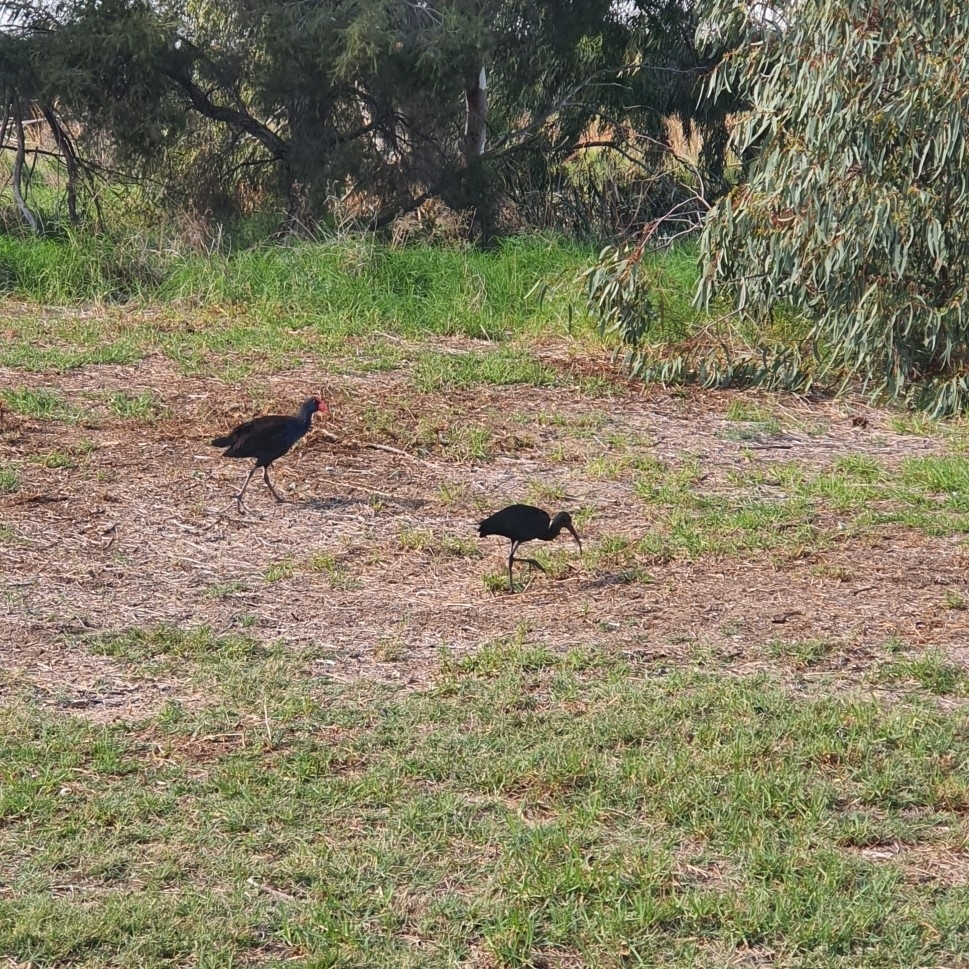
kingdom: Animalia
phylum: Chordata
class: Aves
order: Gruiformes
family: Rallidae
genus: Porphyrio
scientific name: Porphyrio melanotus
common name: Australasian swamphen
